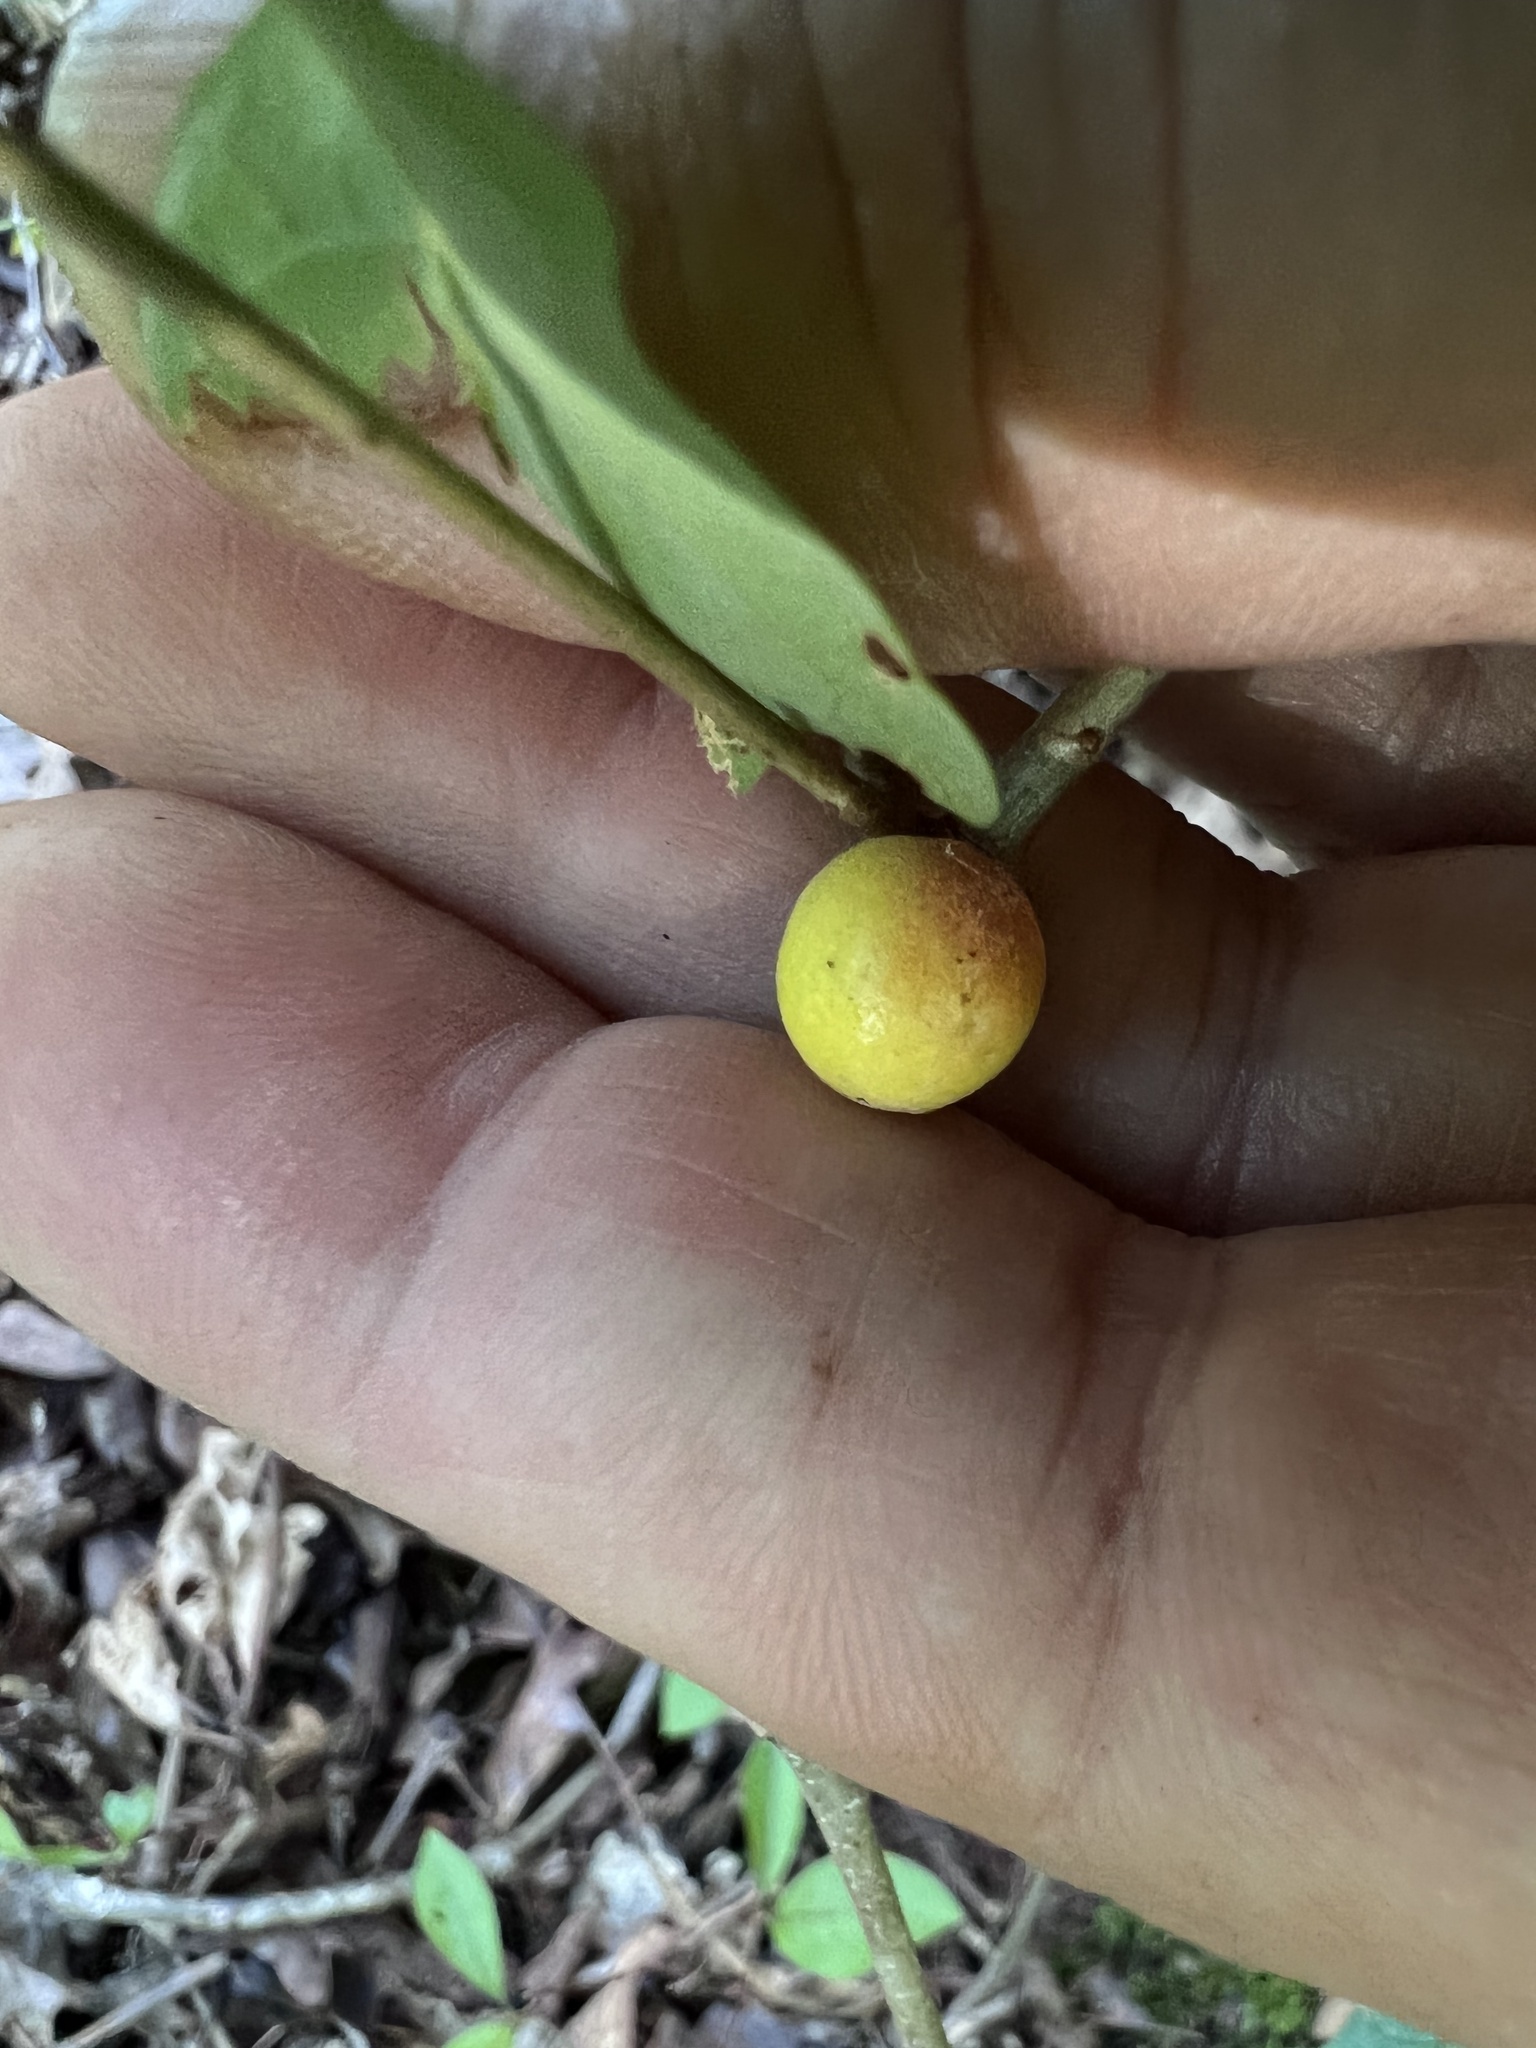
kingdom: Animalia
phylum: Arthropoda
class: Insecta
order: Hymenoptera
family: Cynipidae
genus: Disholcaspis
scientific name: Disholcaspis quercusglobulus
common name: Round bullet gall wasp
